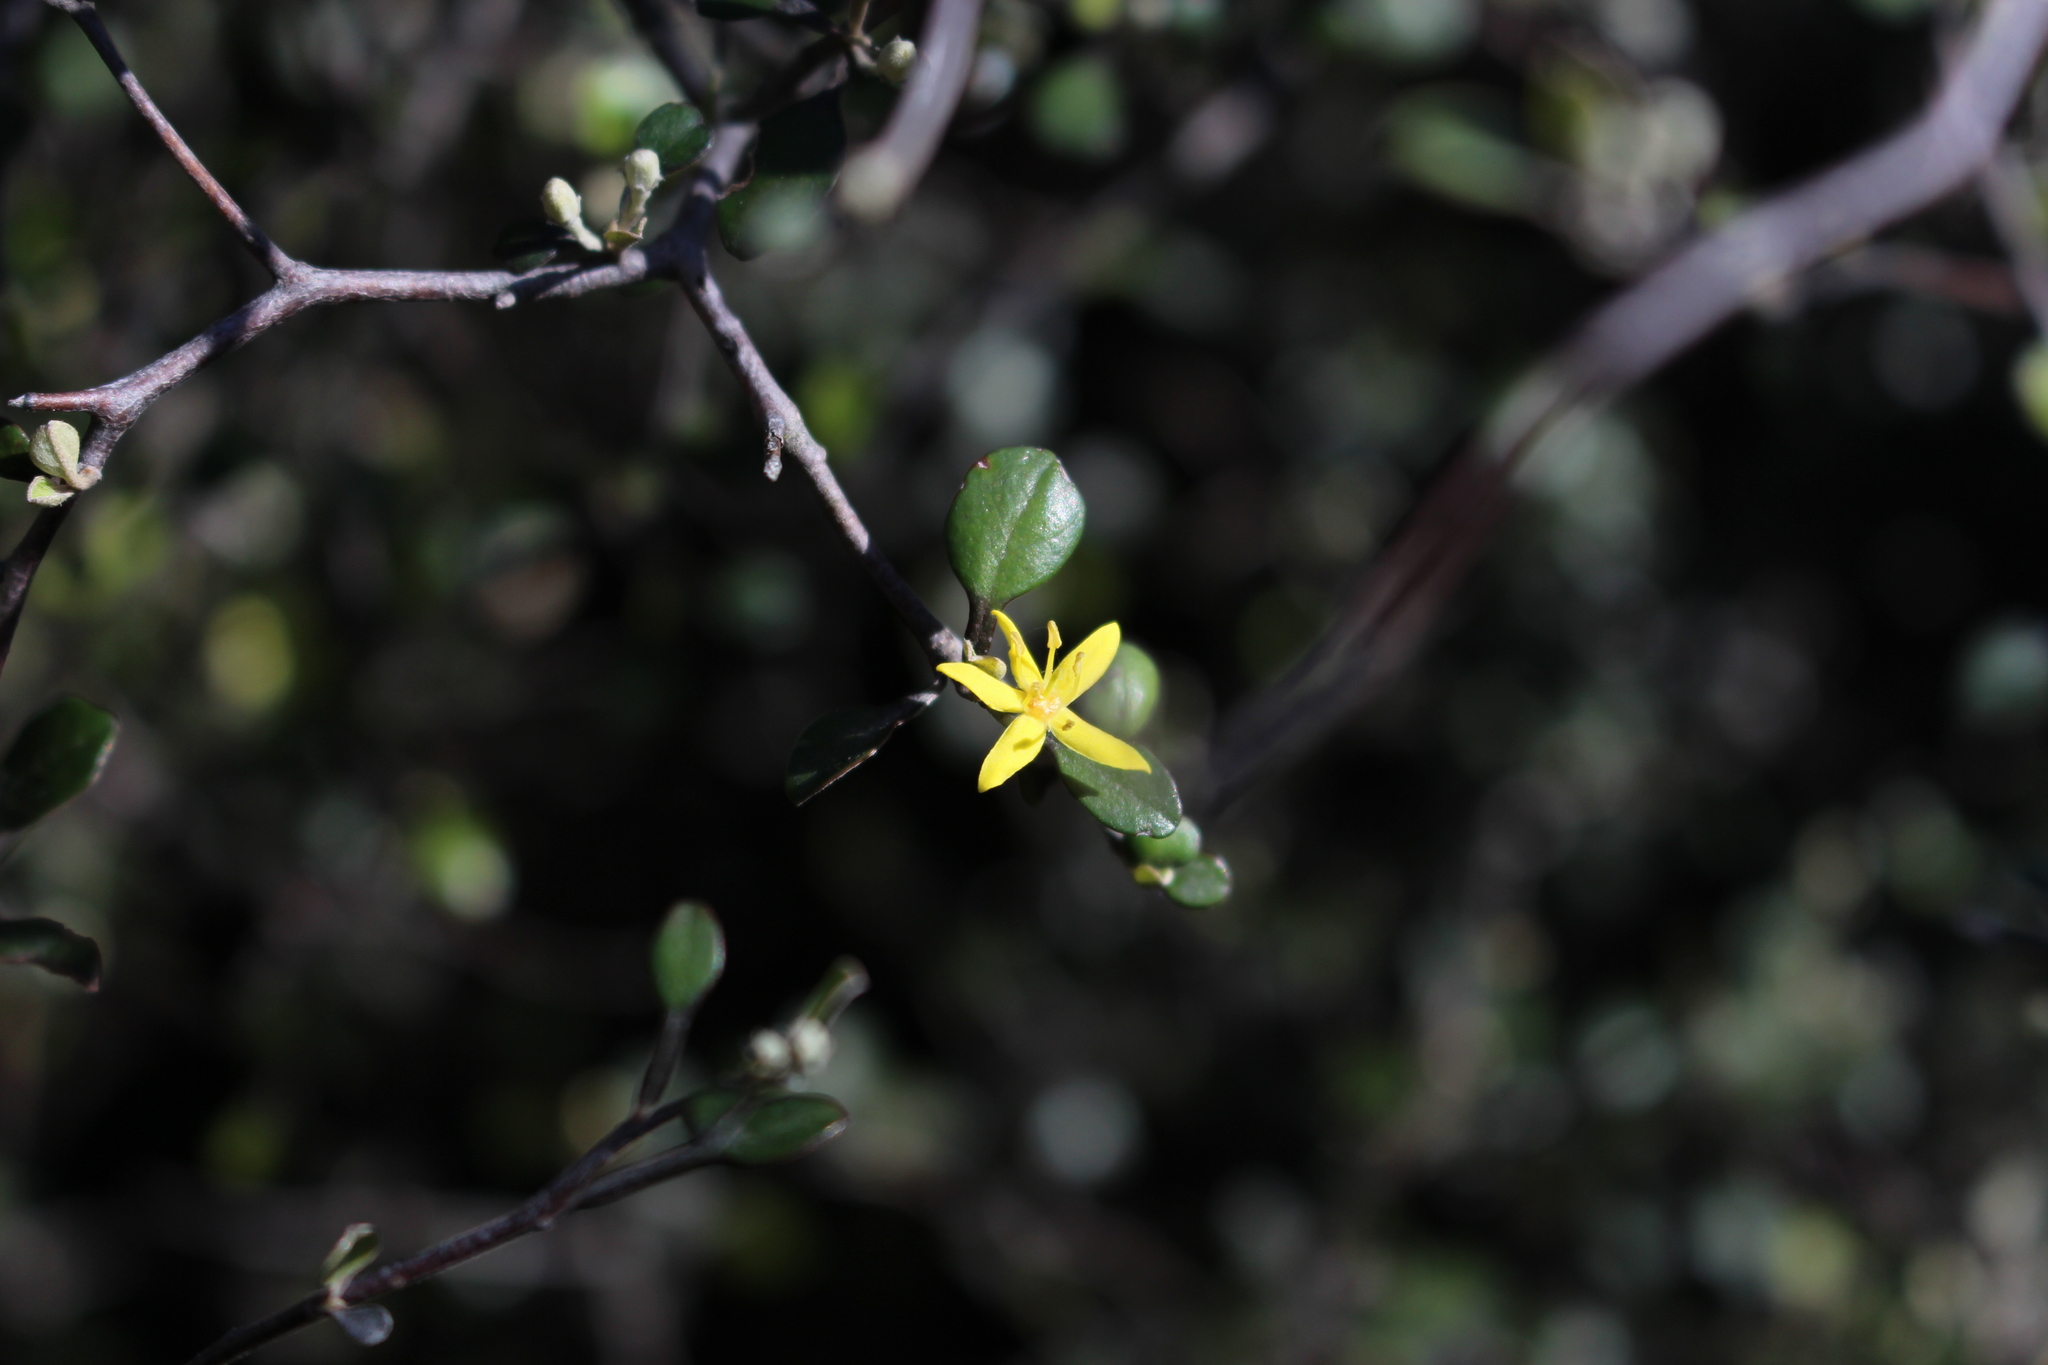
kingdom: Plantae
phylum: Tracheophyta
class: Magnoliopsida
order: Asterales
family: Argophyllaceae
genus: Corokia
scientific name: Corokia cotoneaster
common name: Wire nettingbush
